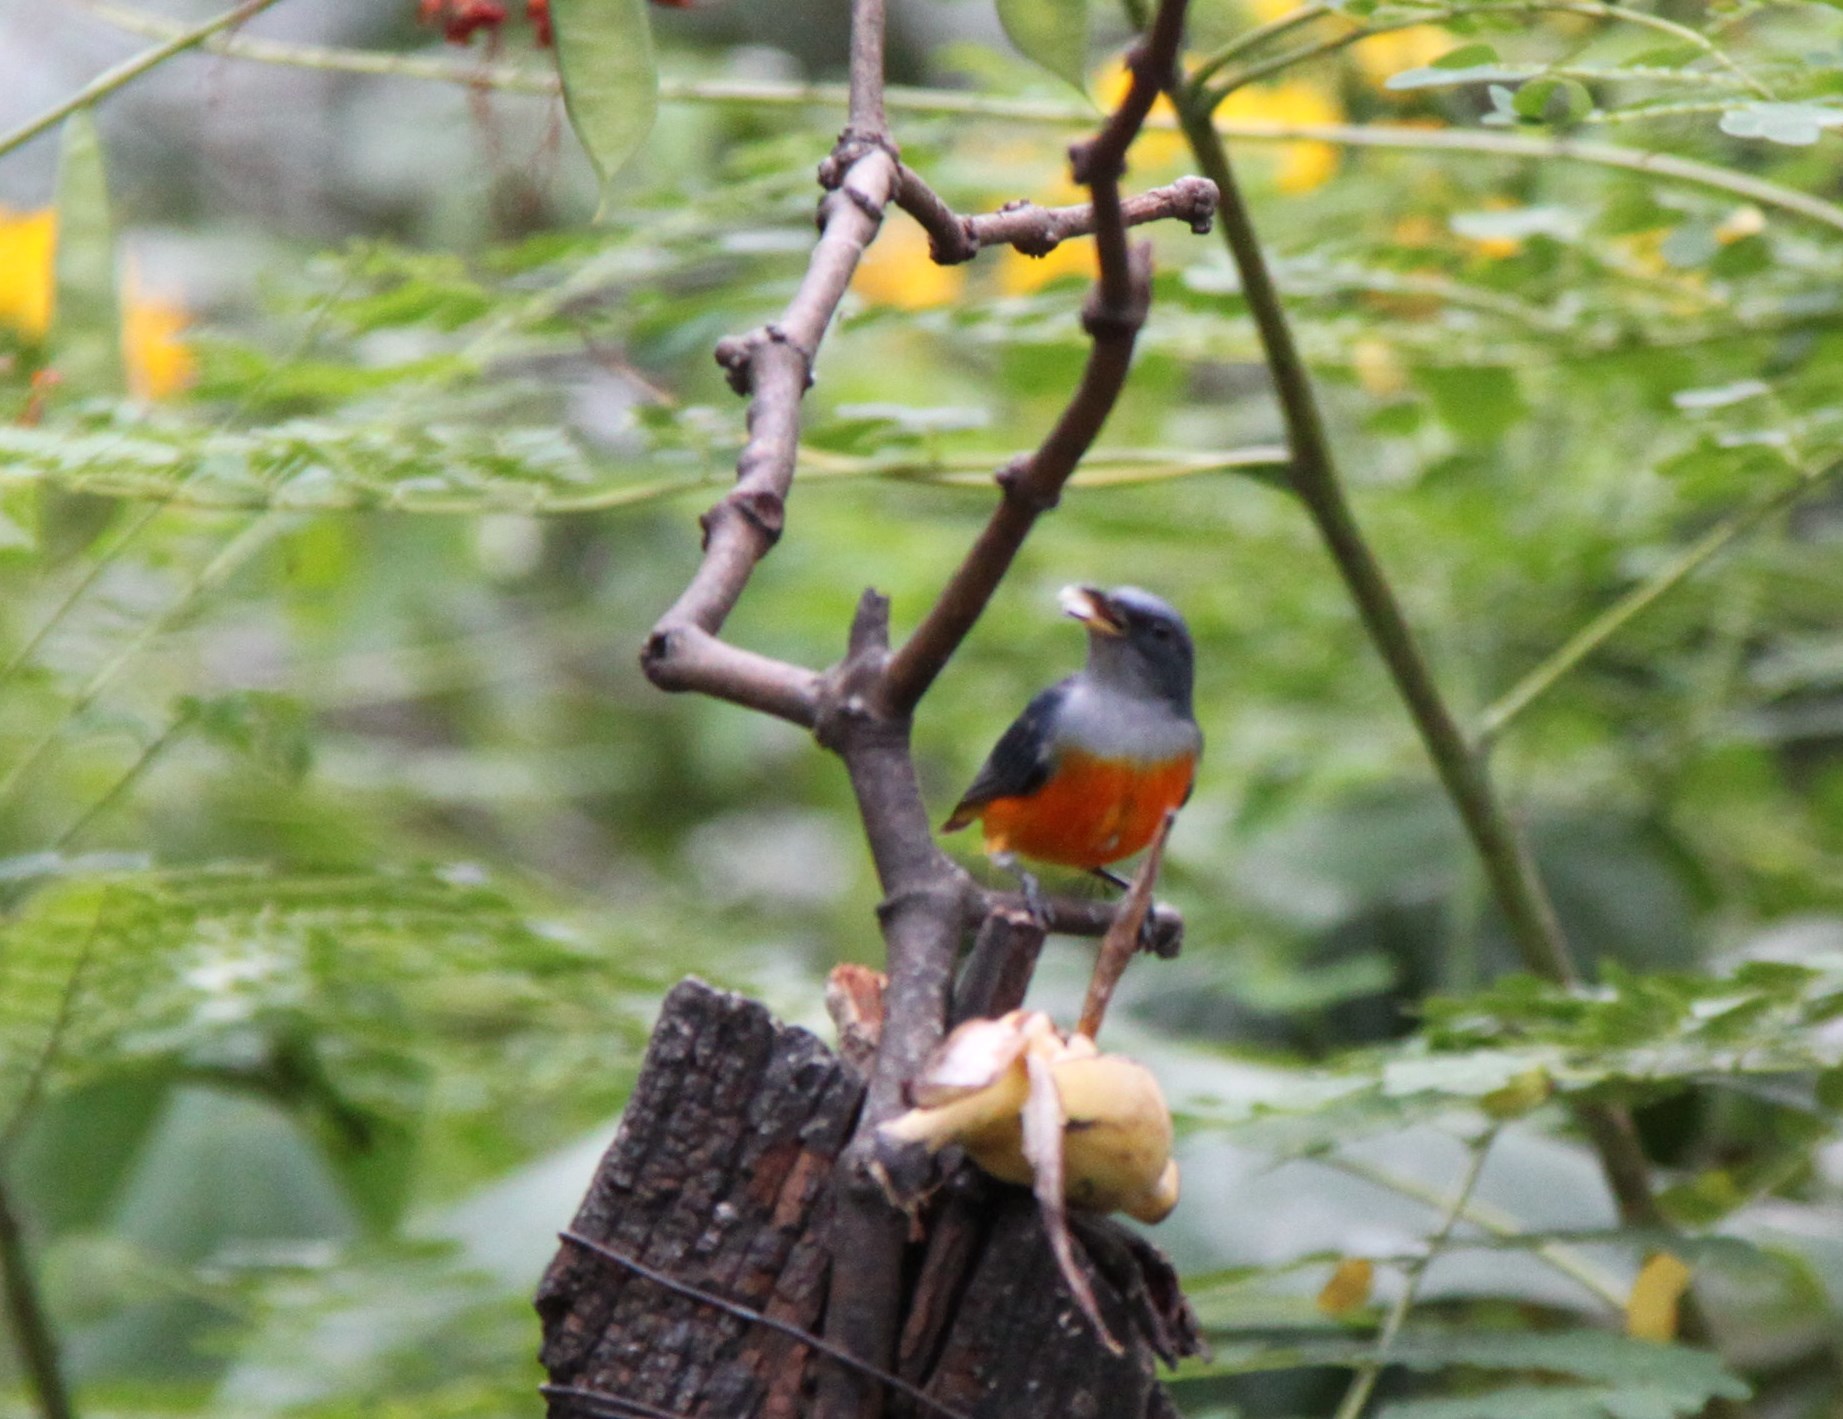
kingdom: Animalia
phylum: Chordata
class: Aves
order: Passeriformes
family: Dicaeidae
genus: Dicaeum
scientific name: Dicaeum trigonostigma
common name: Orange-bellied flowerpecker
